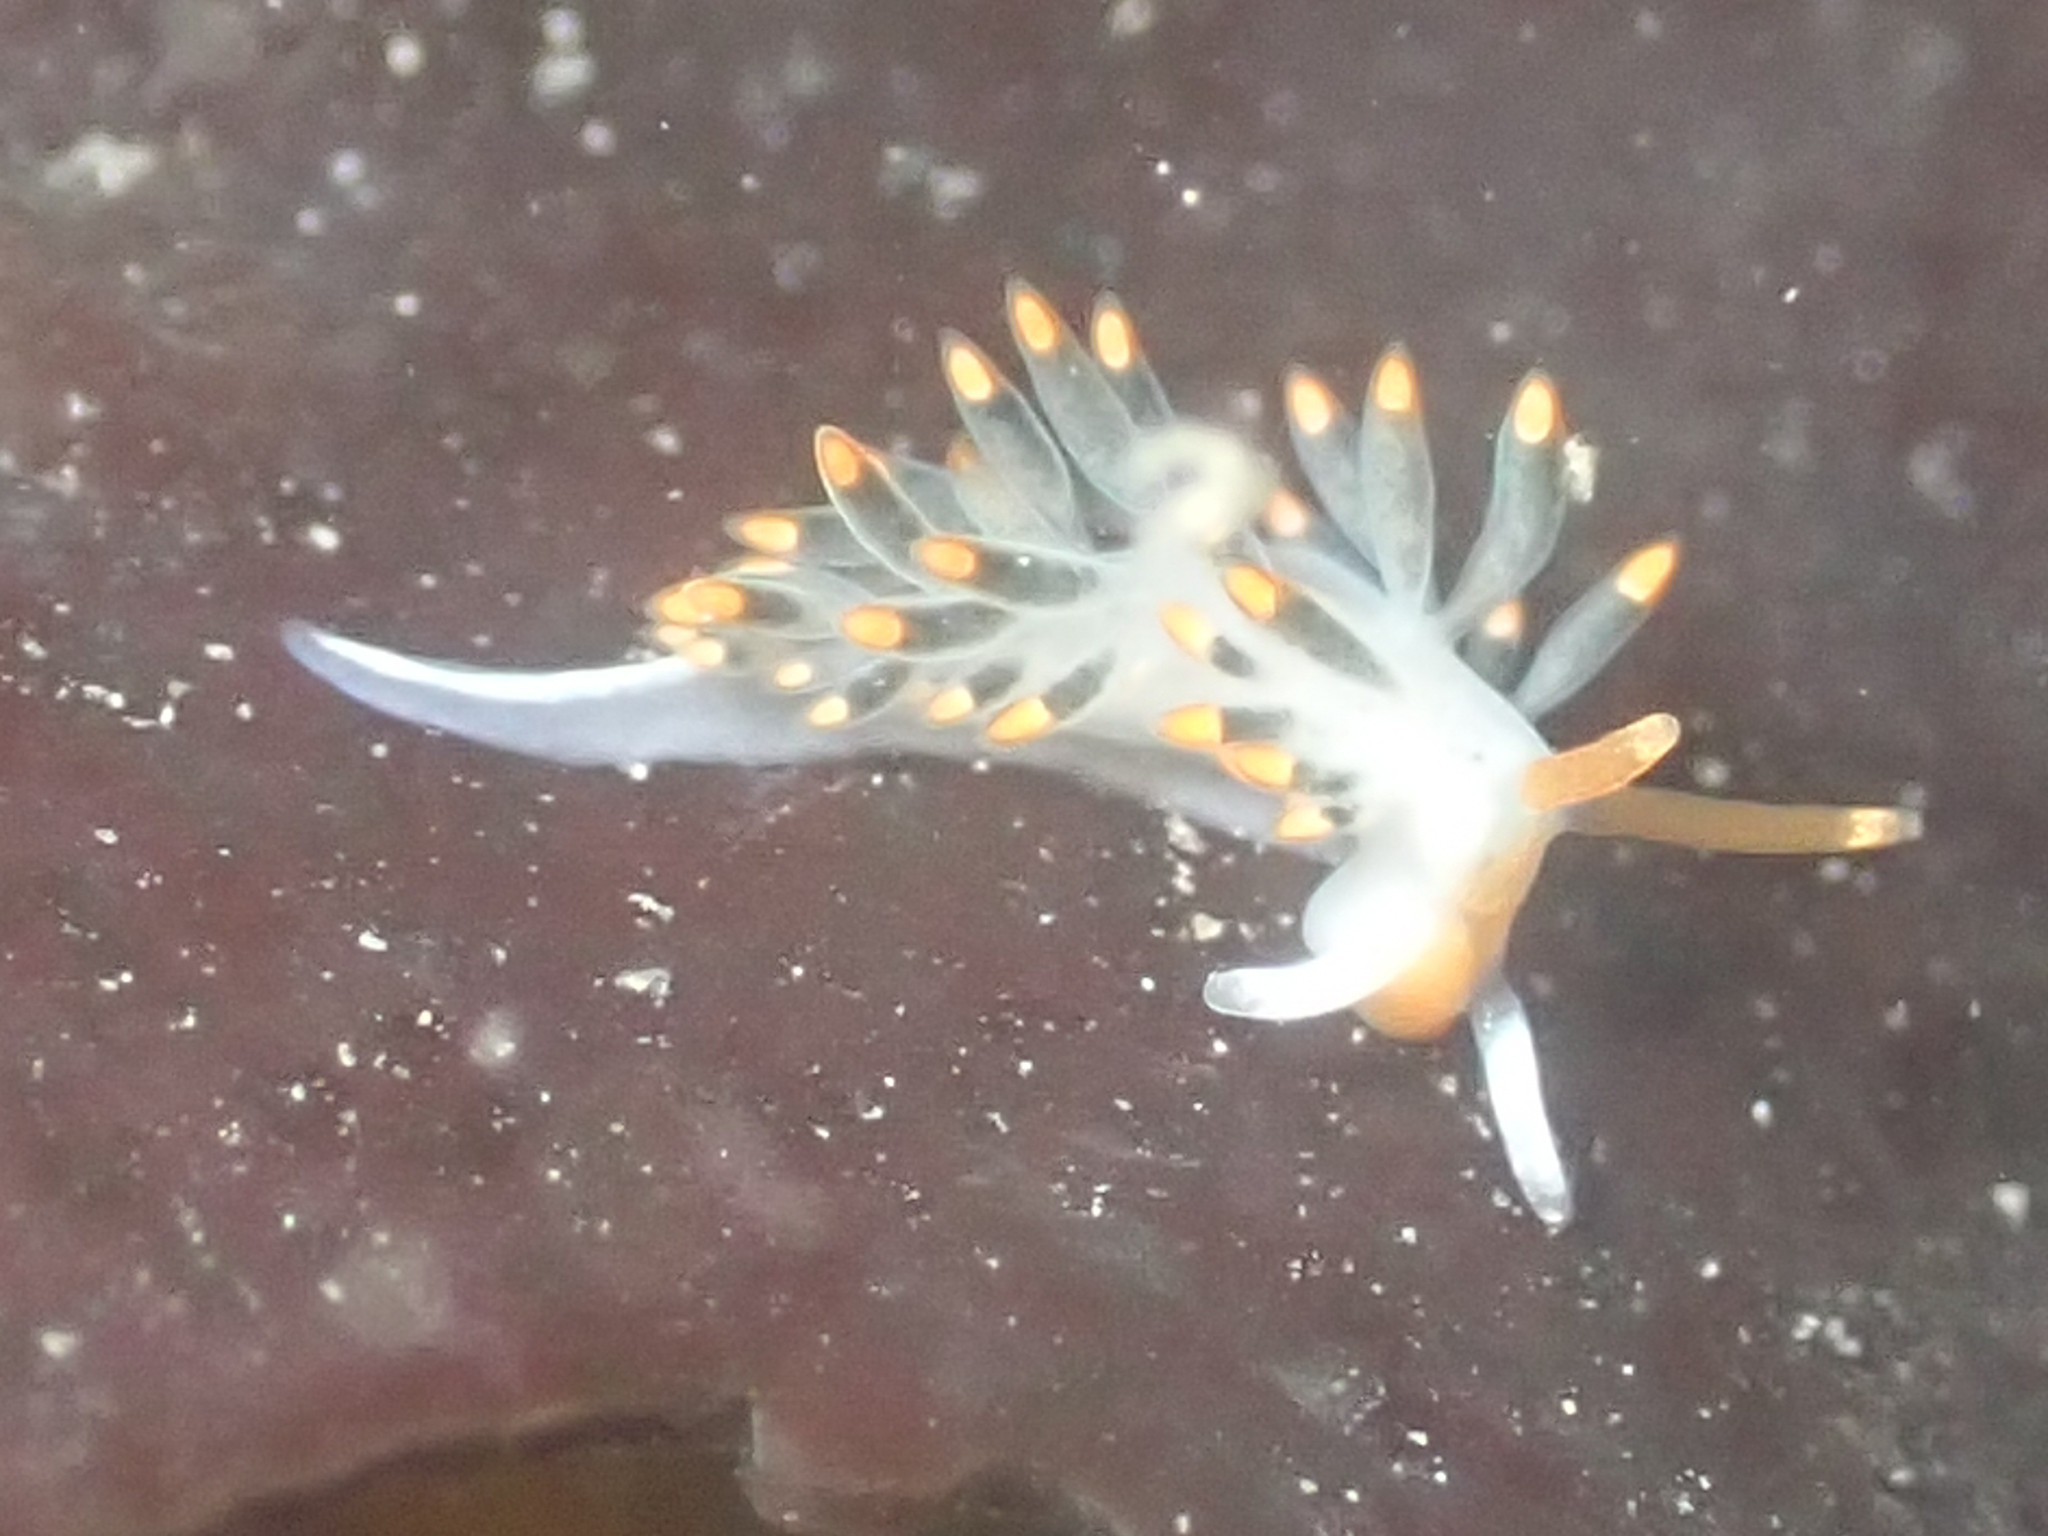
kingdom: Animalia
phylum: Mollusca
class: Gastropoda
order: Nudibranchia
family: Trinchesiidae
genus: Diaphoreolis
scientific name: Diaphoreolis lagunae
